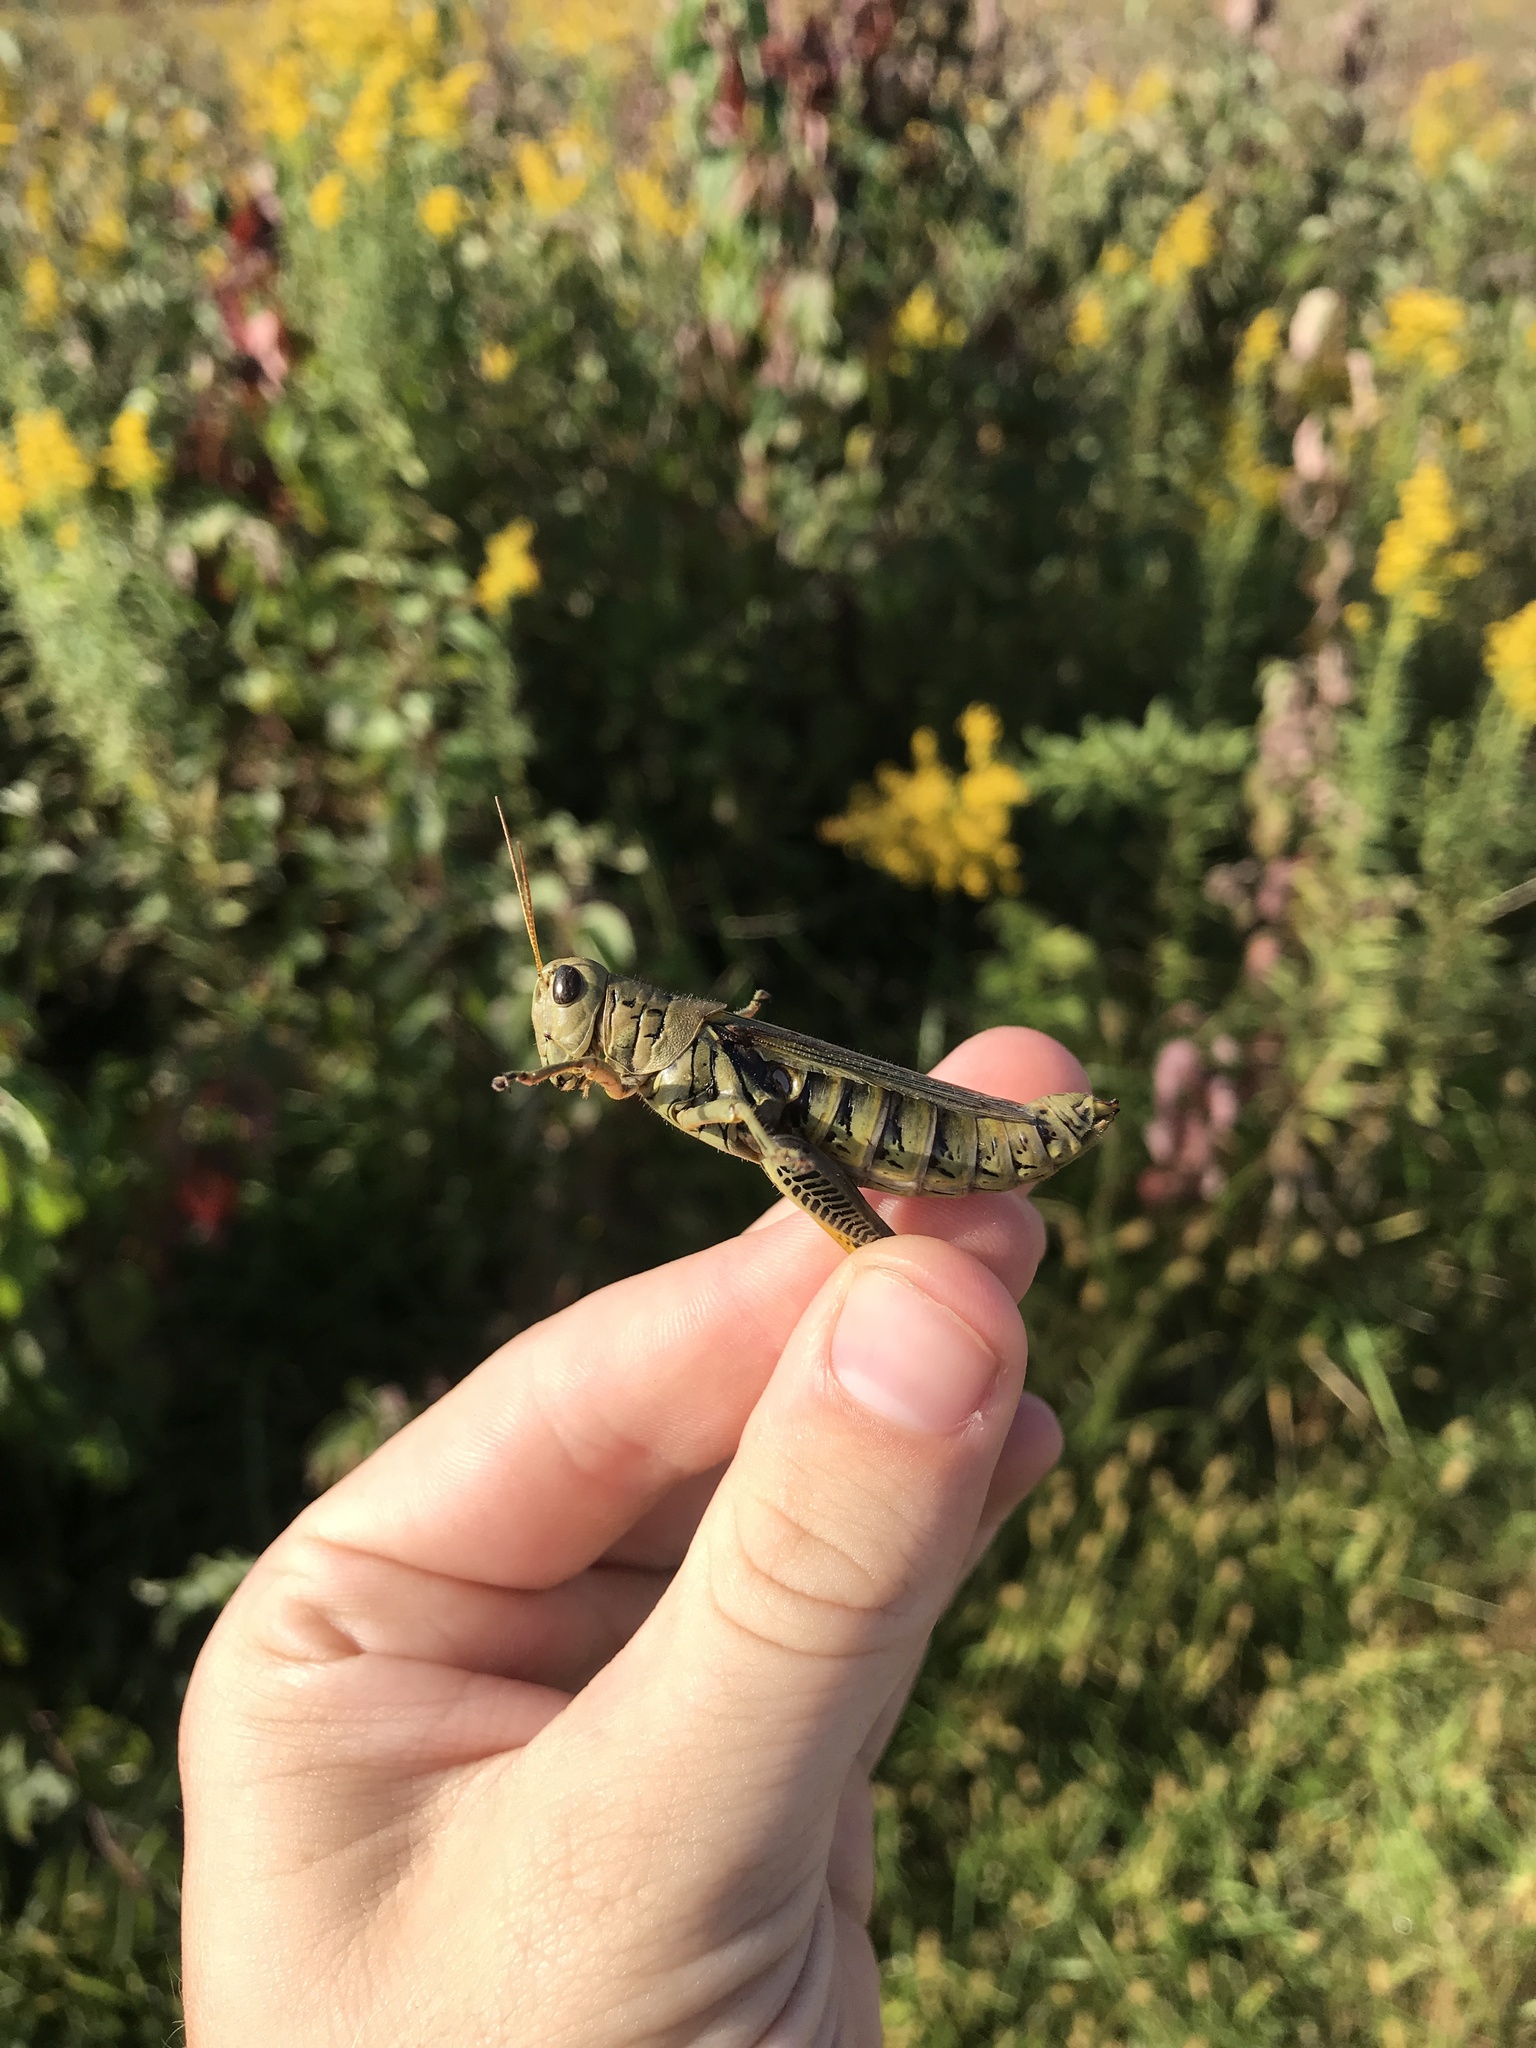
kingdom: Animalia
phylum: Arthropoda
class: Insecta
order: Orthoptera
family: Acrididae
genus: Melanoplus
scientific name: Melanoplus differentialis
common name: Differential grasshopper
